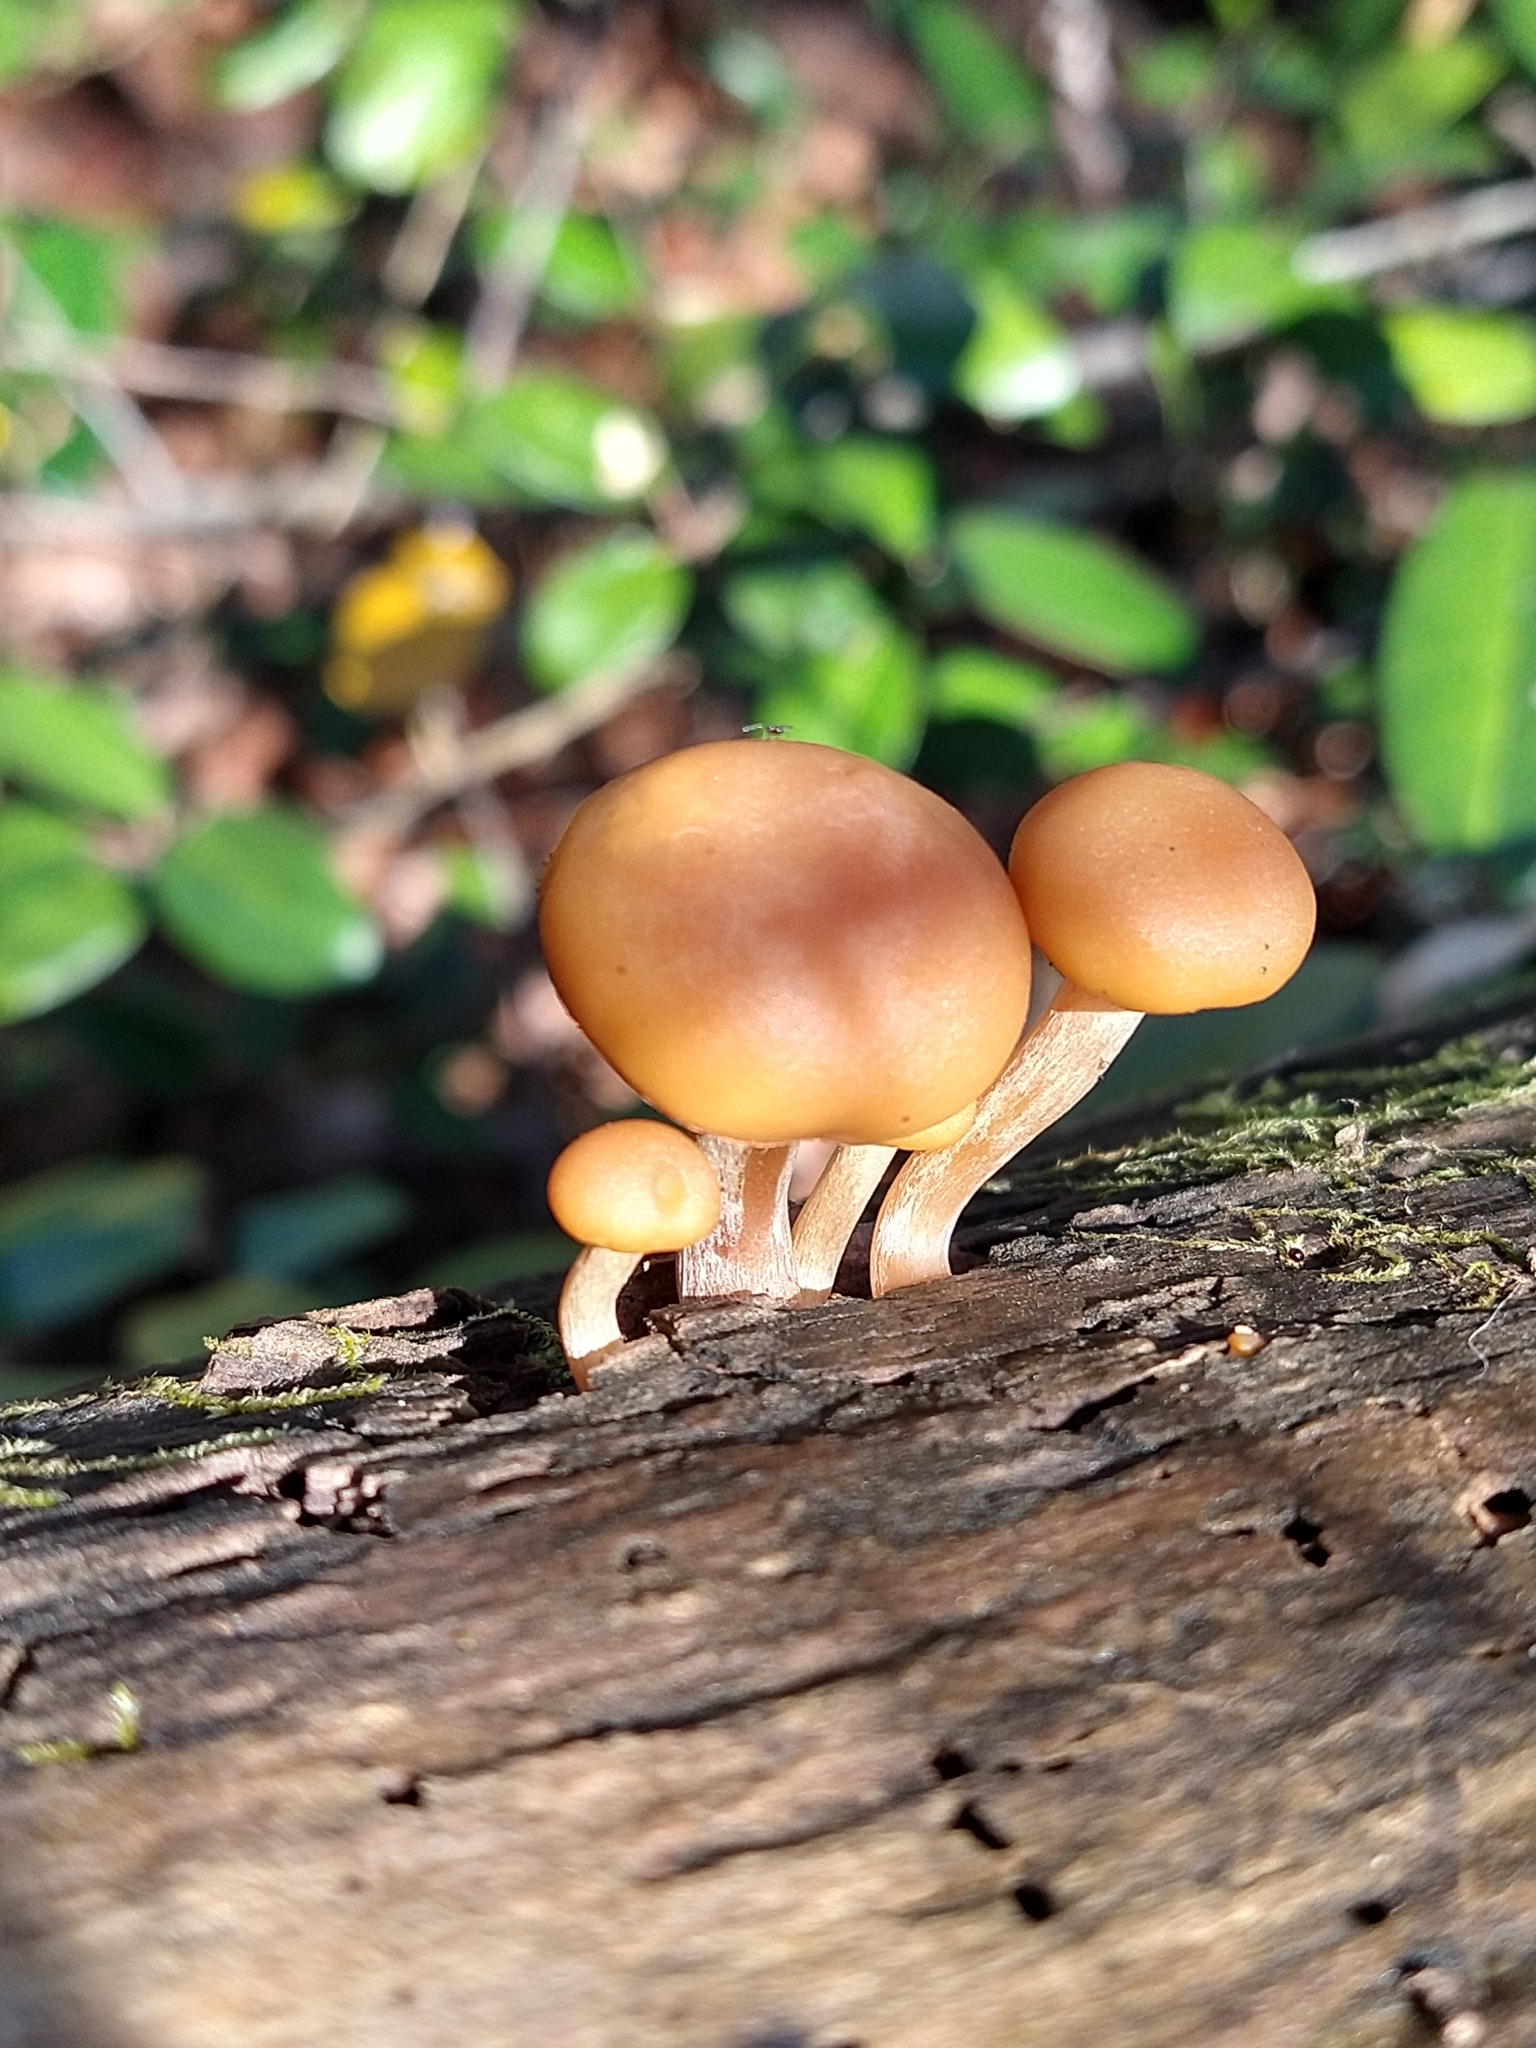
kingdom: Fungi
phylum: Basidiomycota
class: Agaricomycetes
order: Agaricales
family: Hymenogastraceae
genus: Galerina
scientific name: Galerina marginata
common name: Funeral bell
